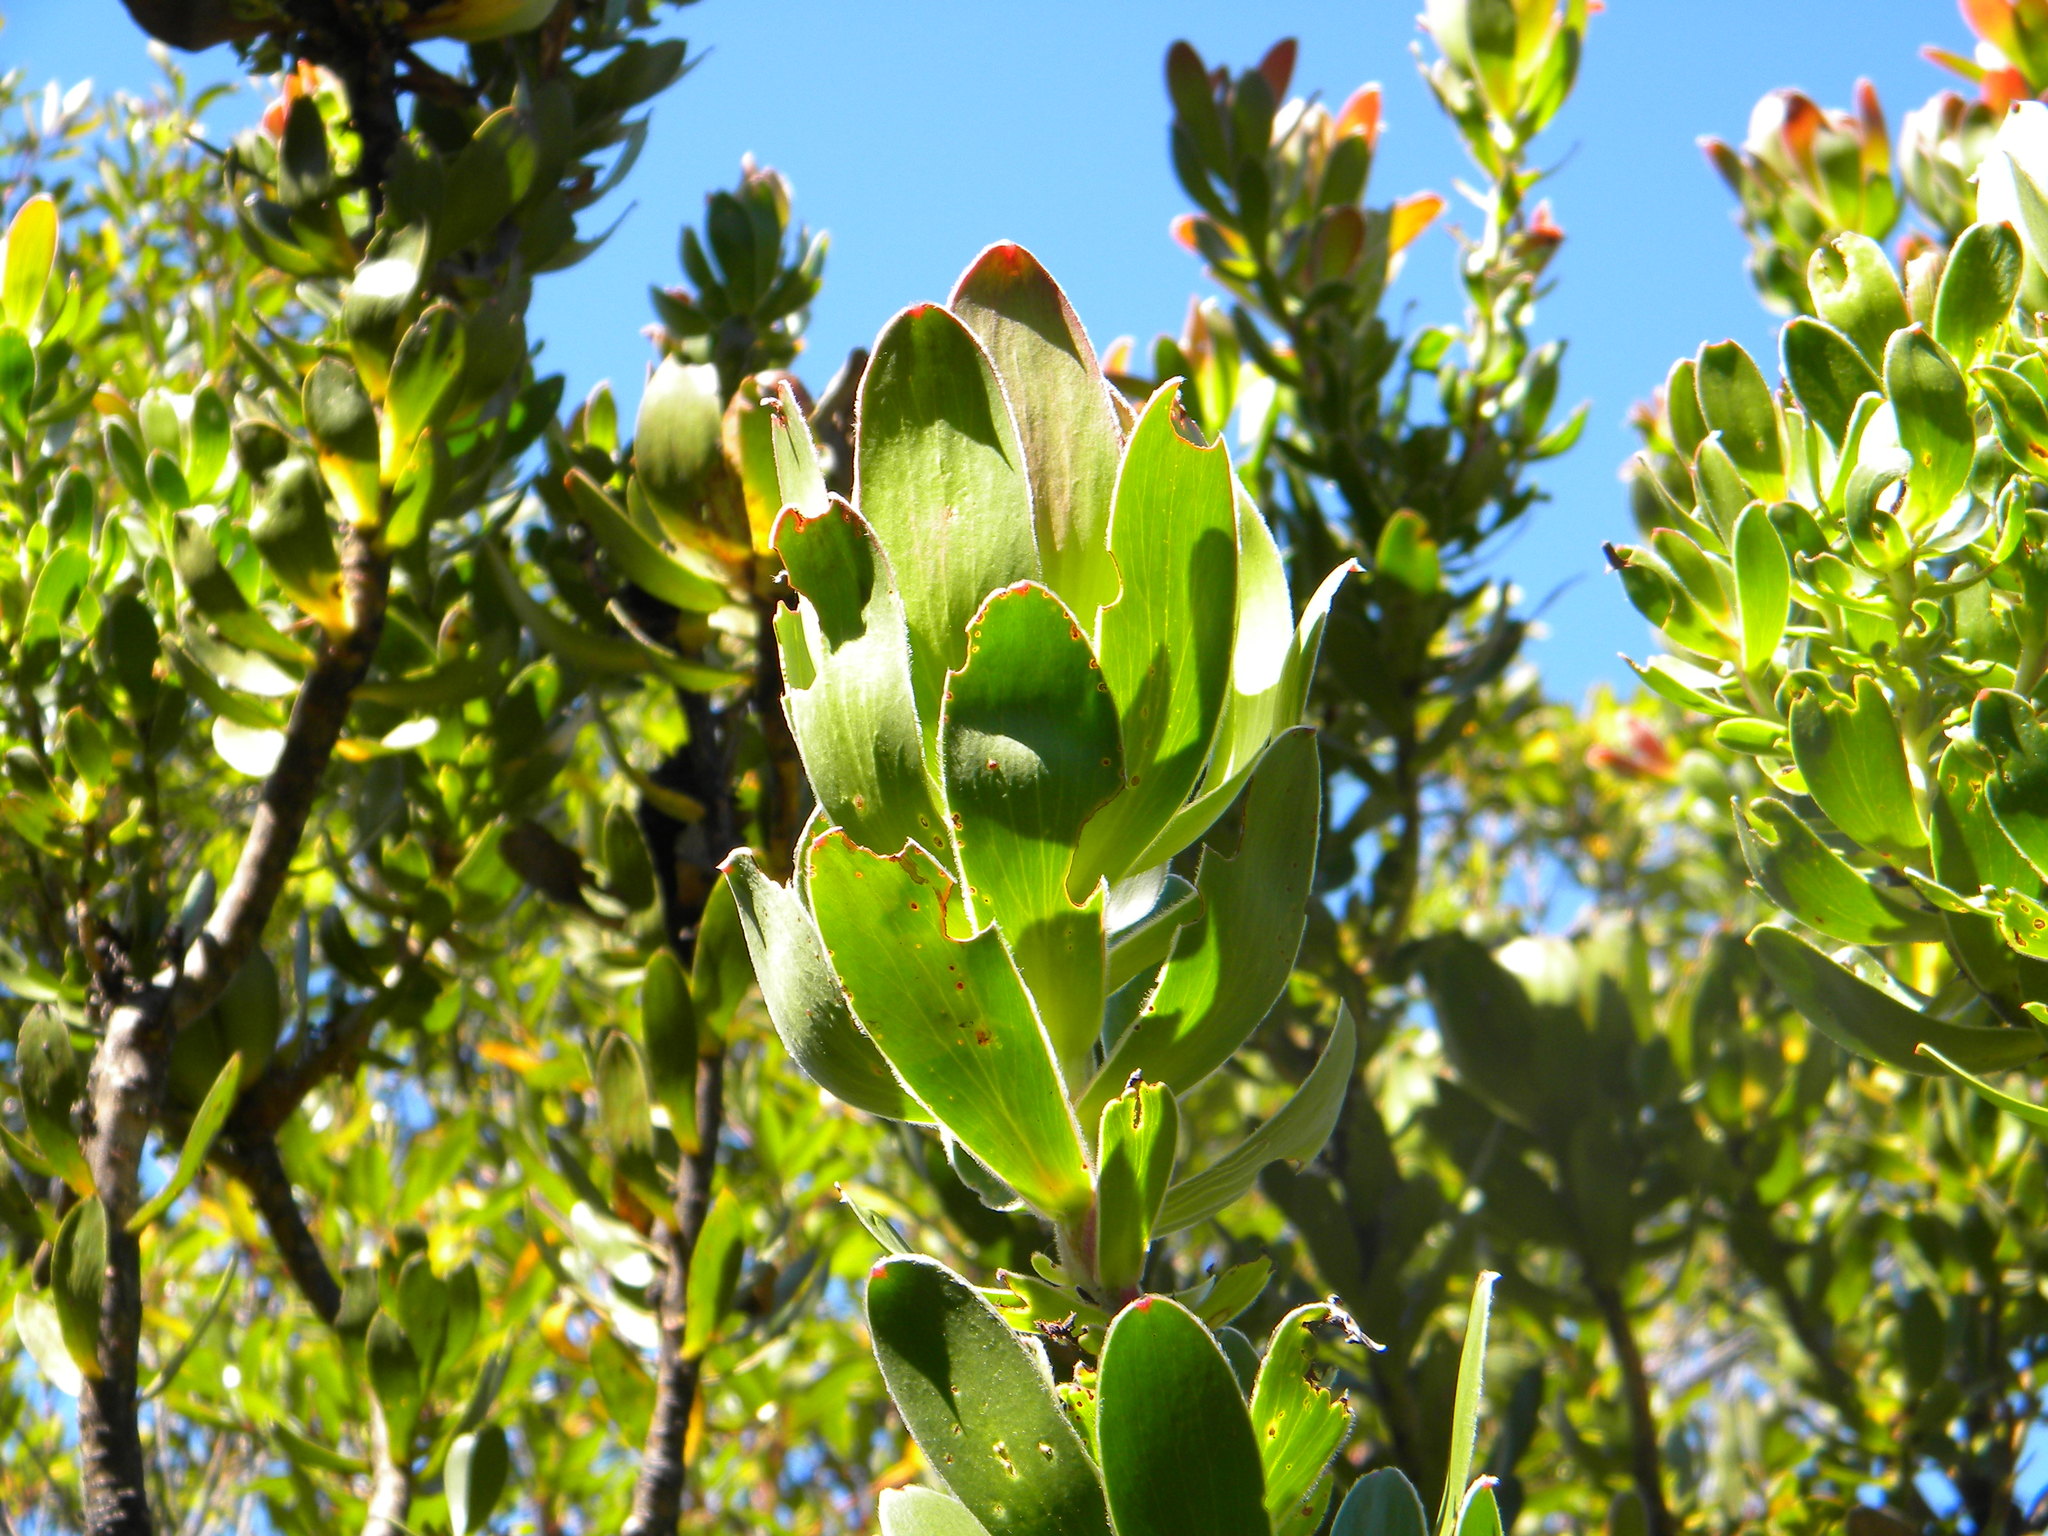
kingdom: Plantae
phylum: Tracheophyta
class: Magnoliopsida
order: Proteales
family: Proteaceae
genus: Leucadendron
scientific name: Leucadendron strobilinum
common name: Mountain rose
